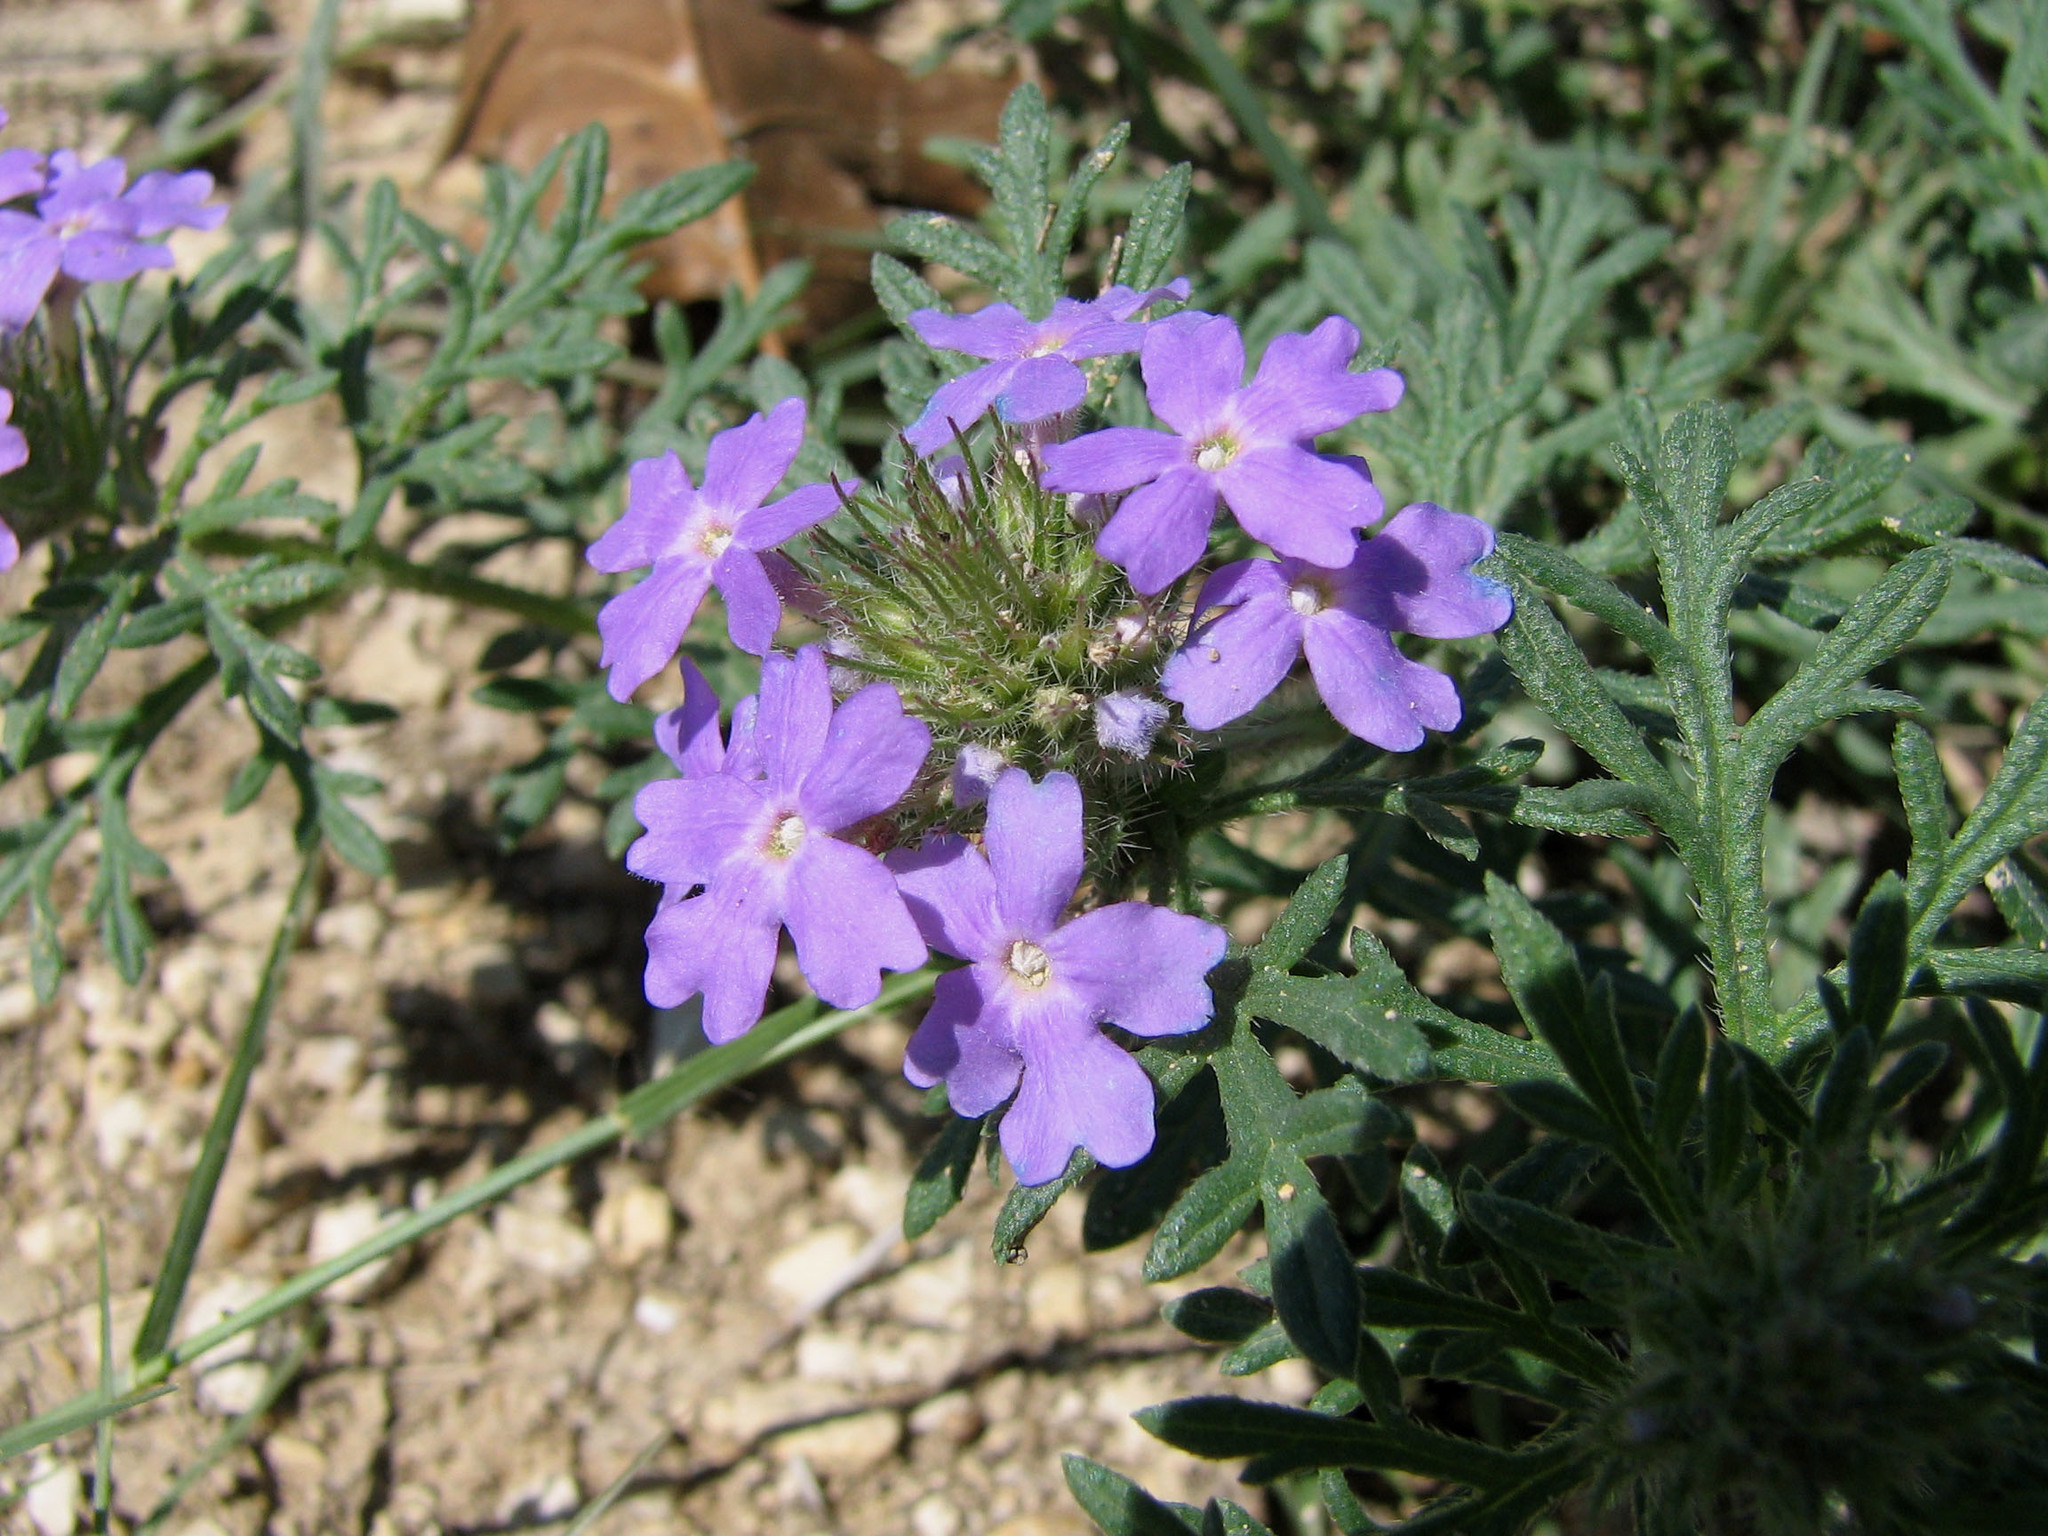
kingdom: Plantae
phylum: Tracheophyta
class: Magnoliopsida
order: Lamiales
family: Verbenaceae
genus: Verbena
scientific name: Verbena bipinnatifida
